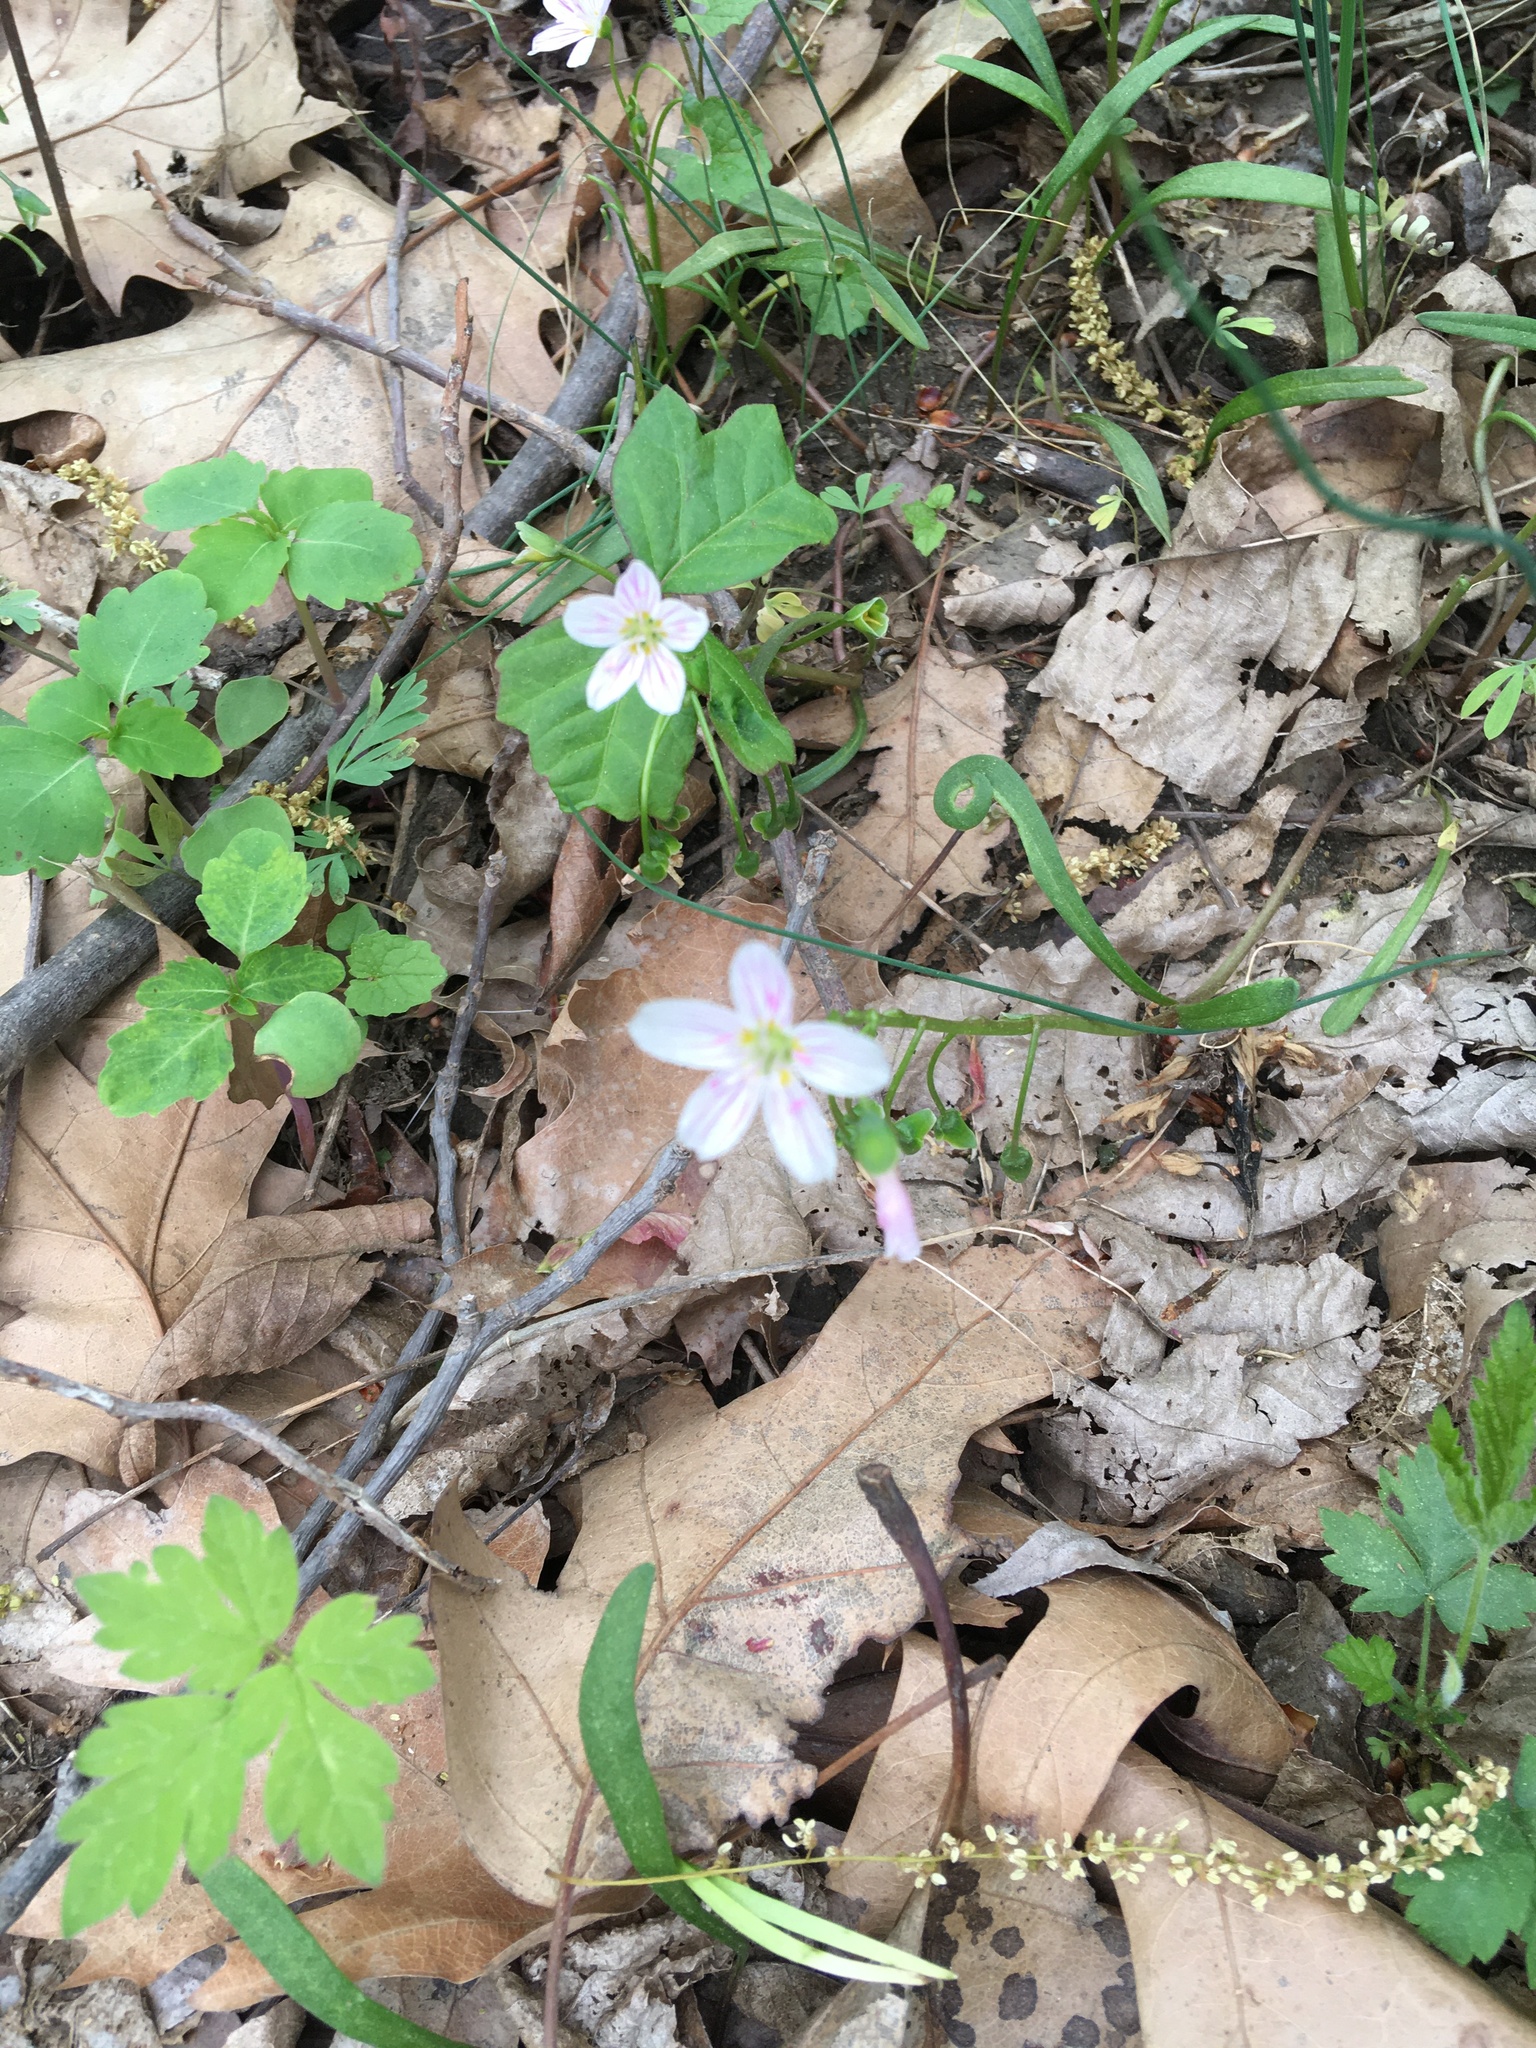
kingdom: Plantae
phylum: Tracheophyta
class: Magnoliopsida
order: Caryophyllales
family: Montiaceae
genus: Claytonia
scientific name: Claytonia virginica
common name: Virginia springbeauty
